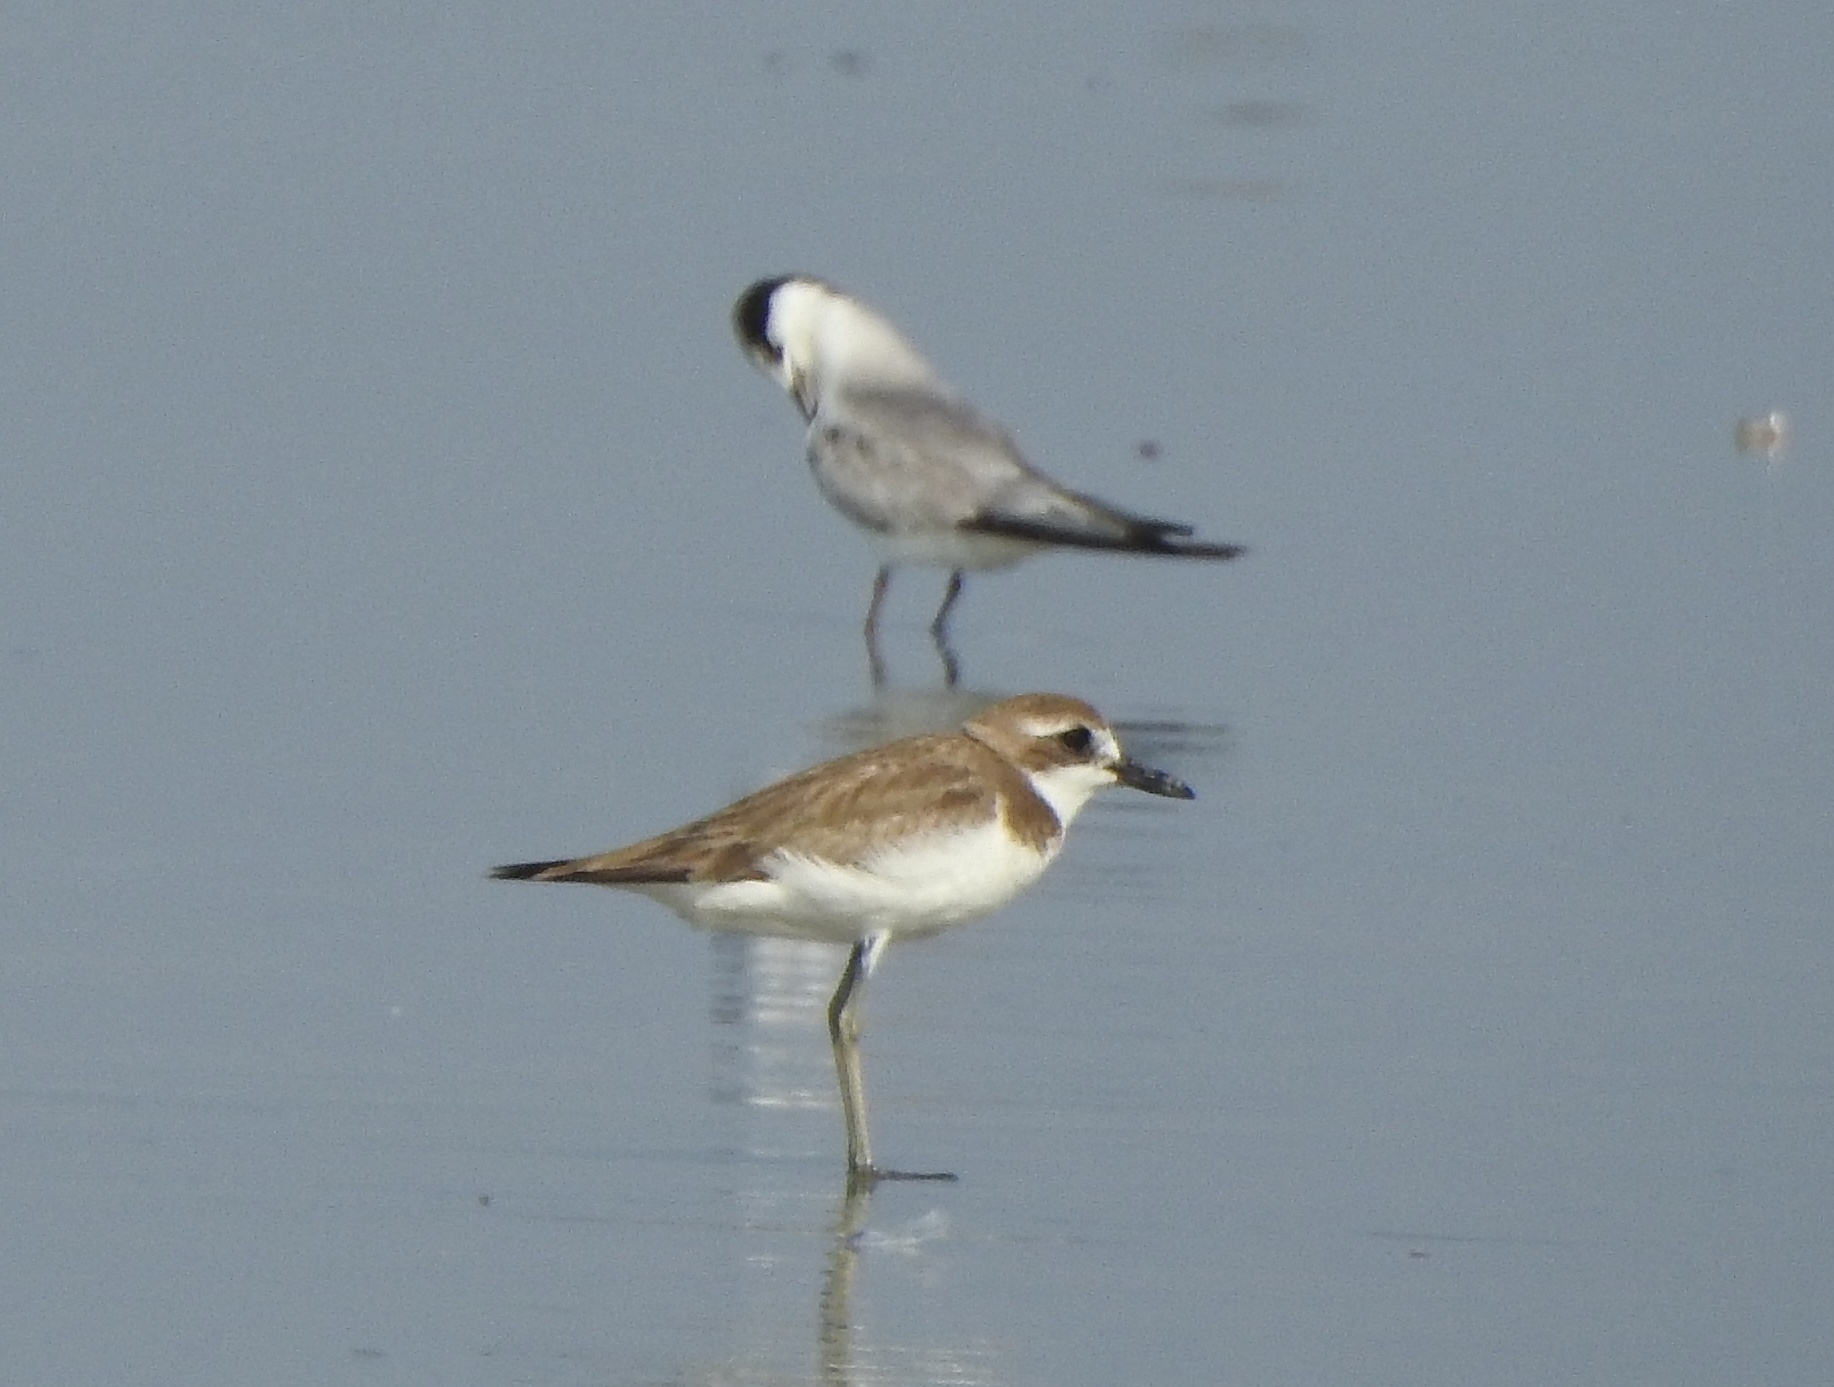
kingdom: Animalia
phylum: Chordata
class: Aves
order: Charadriiformes
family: Charadriidae
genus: Charadrius
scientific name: Charadrius leschenaultii
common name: Greater sand plover
